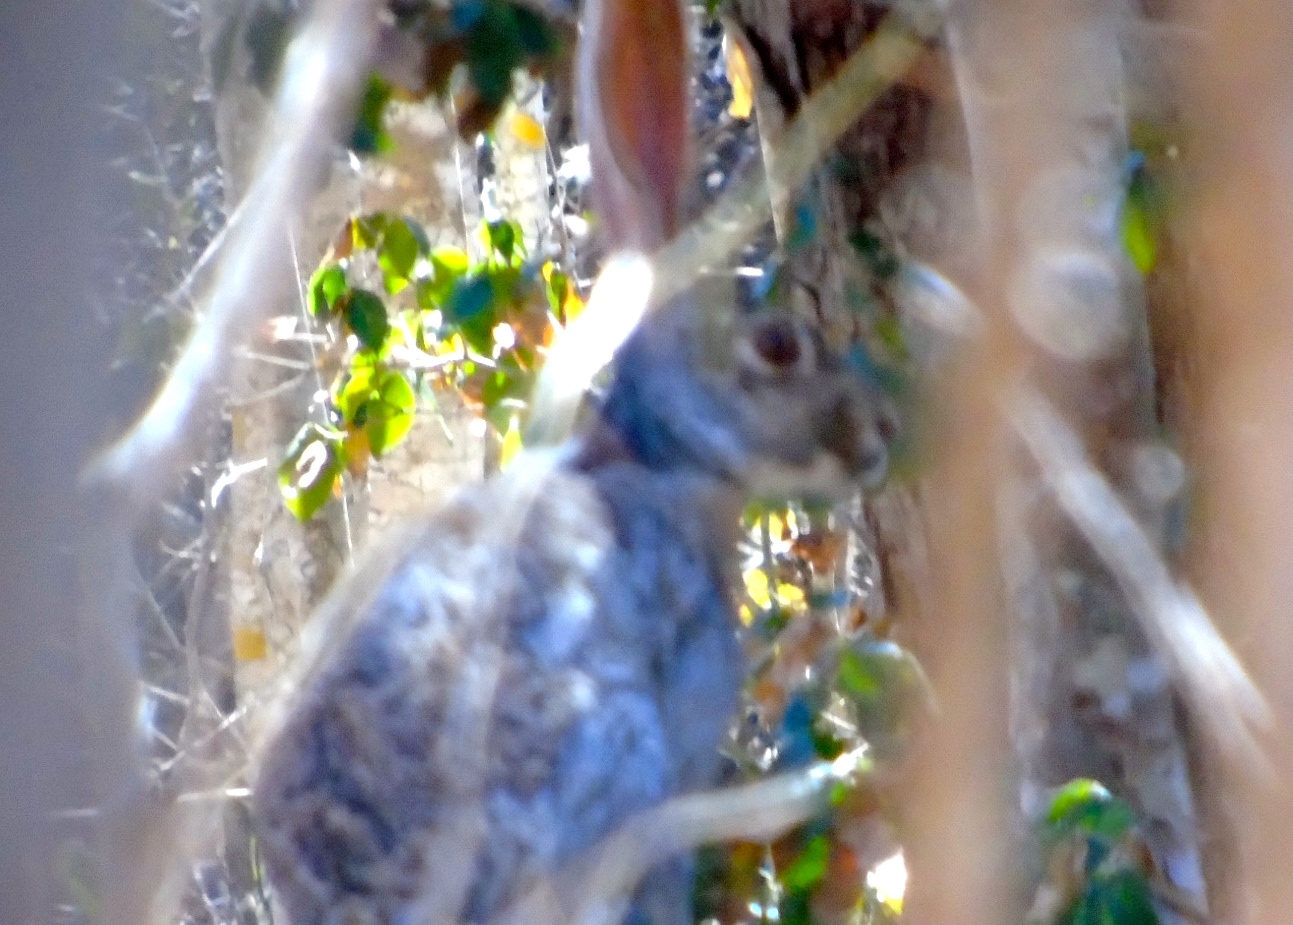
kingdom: Animalia
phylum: Chordata
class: Mammalia
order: Lagomorpha
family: Leporidae
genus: Lepus
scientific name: Lepus alleni
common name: Antelope jackrabbit
